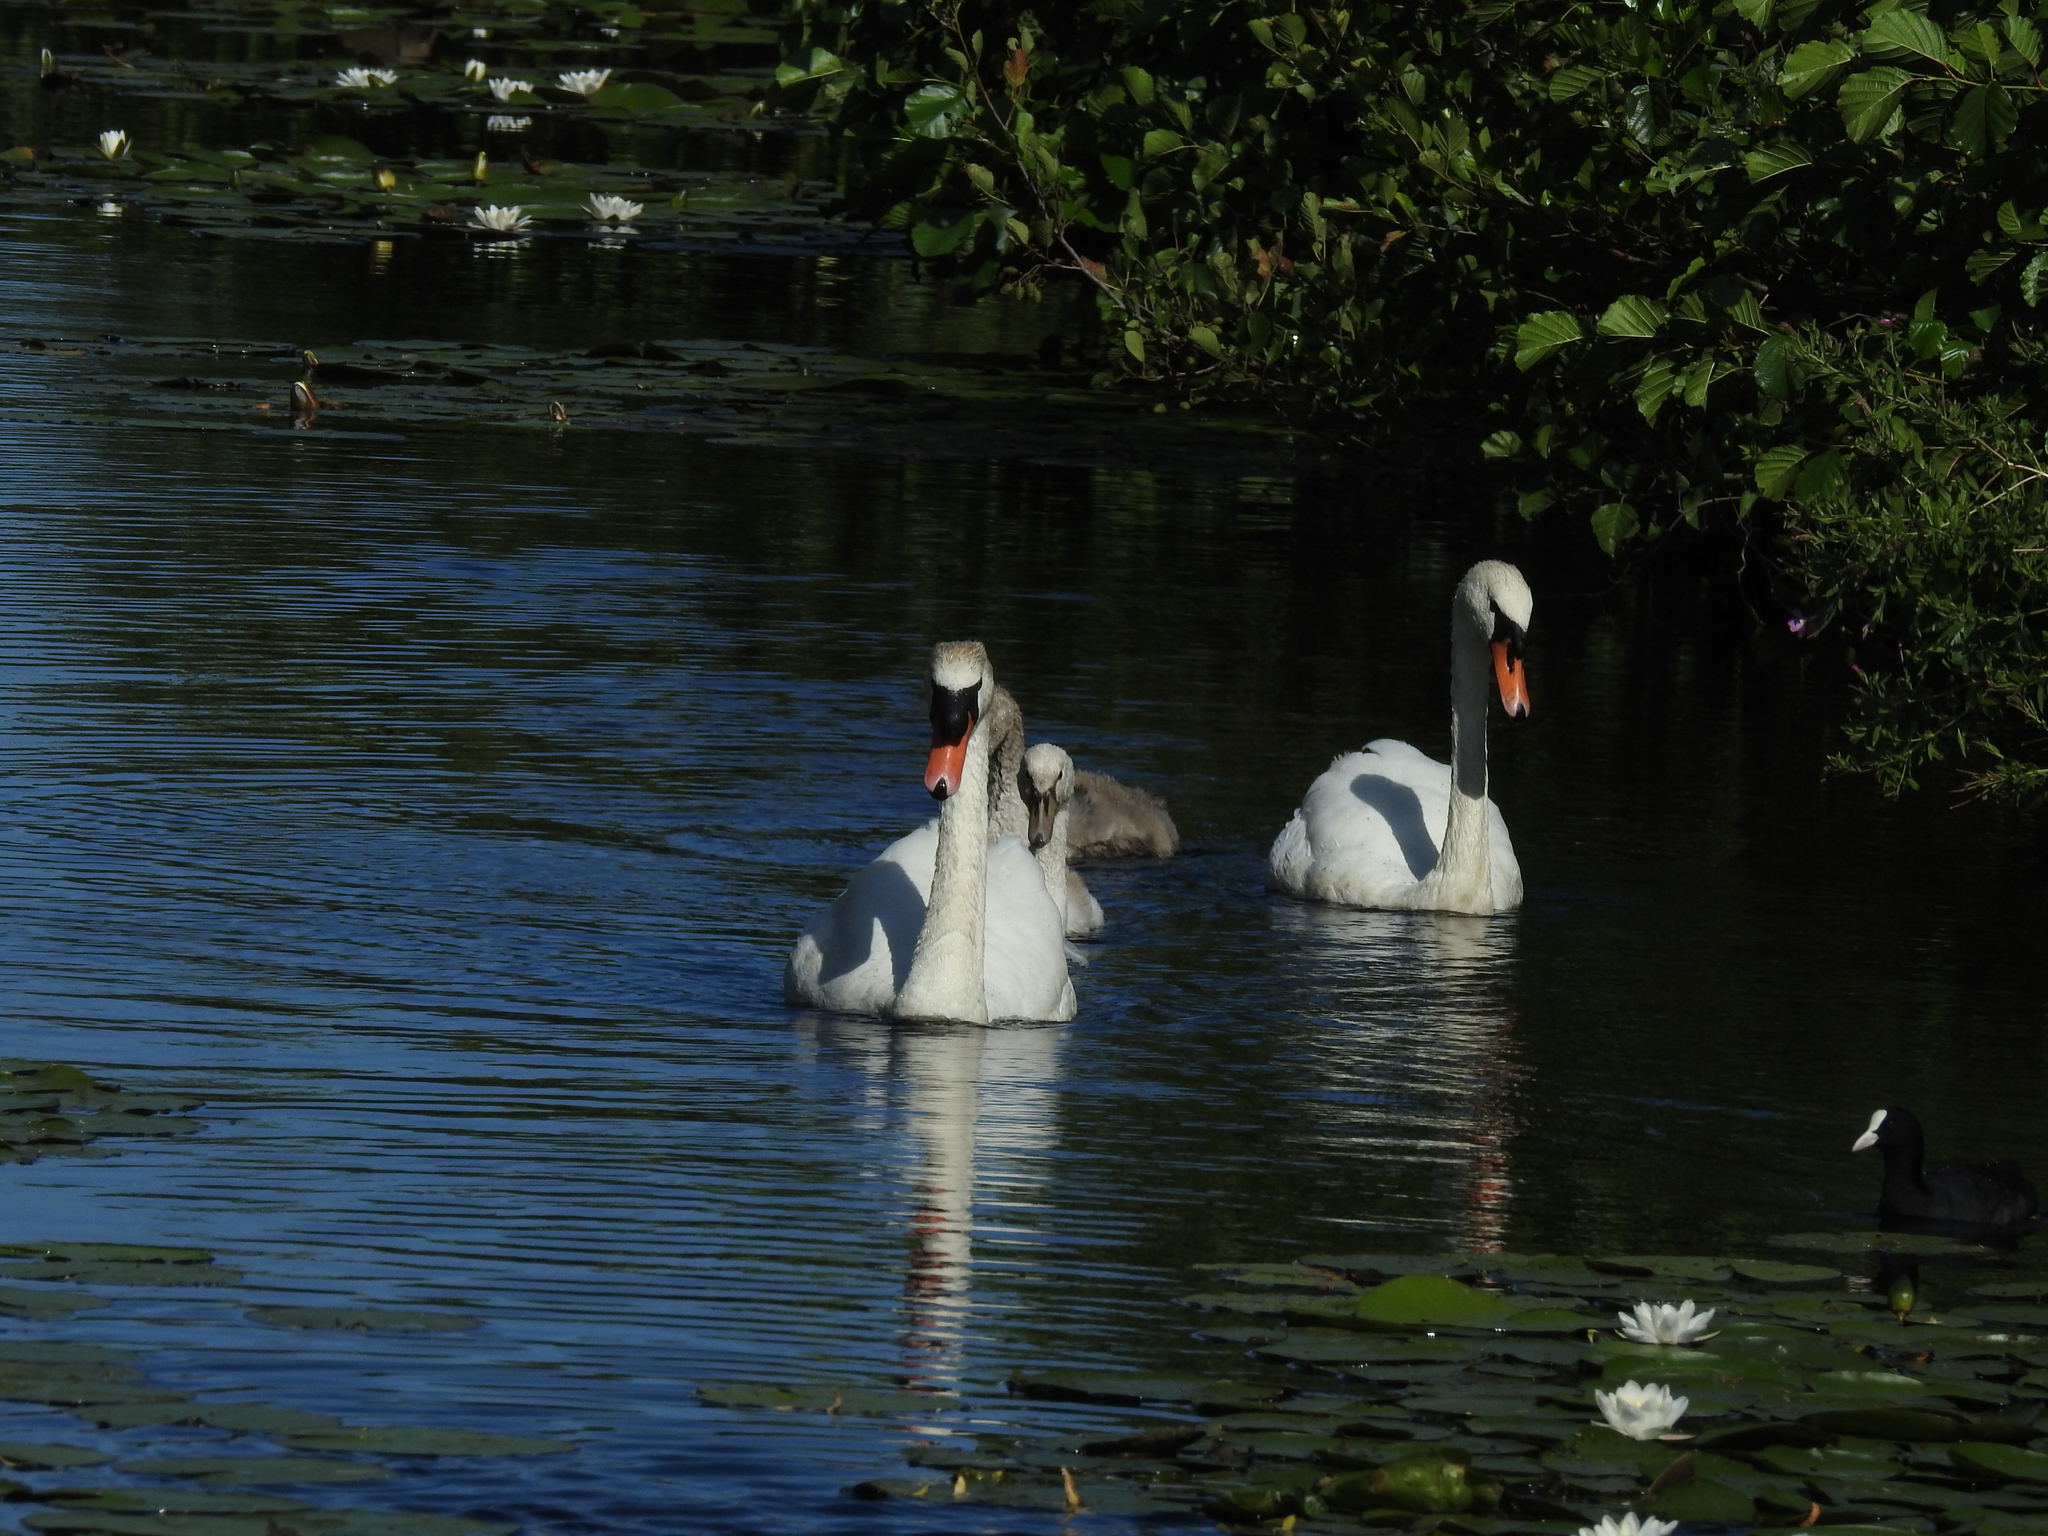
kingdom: Animalia
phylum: Chordata
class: Aves
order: Anseriformes
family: Anatidae
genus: Cygnus
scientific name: Cygnus olor
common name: Mute swan
